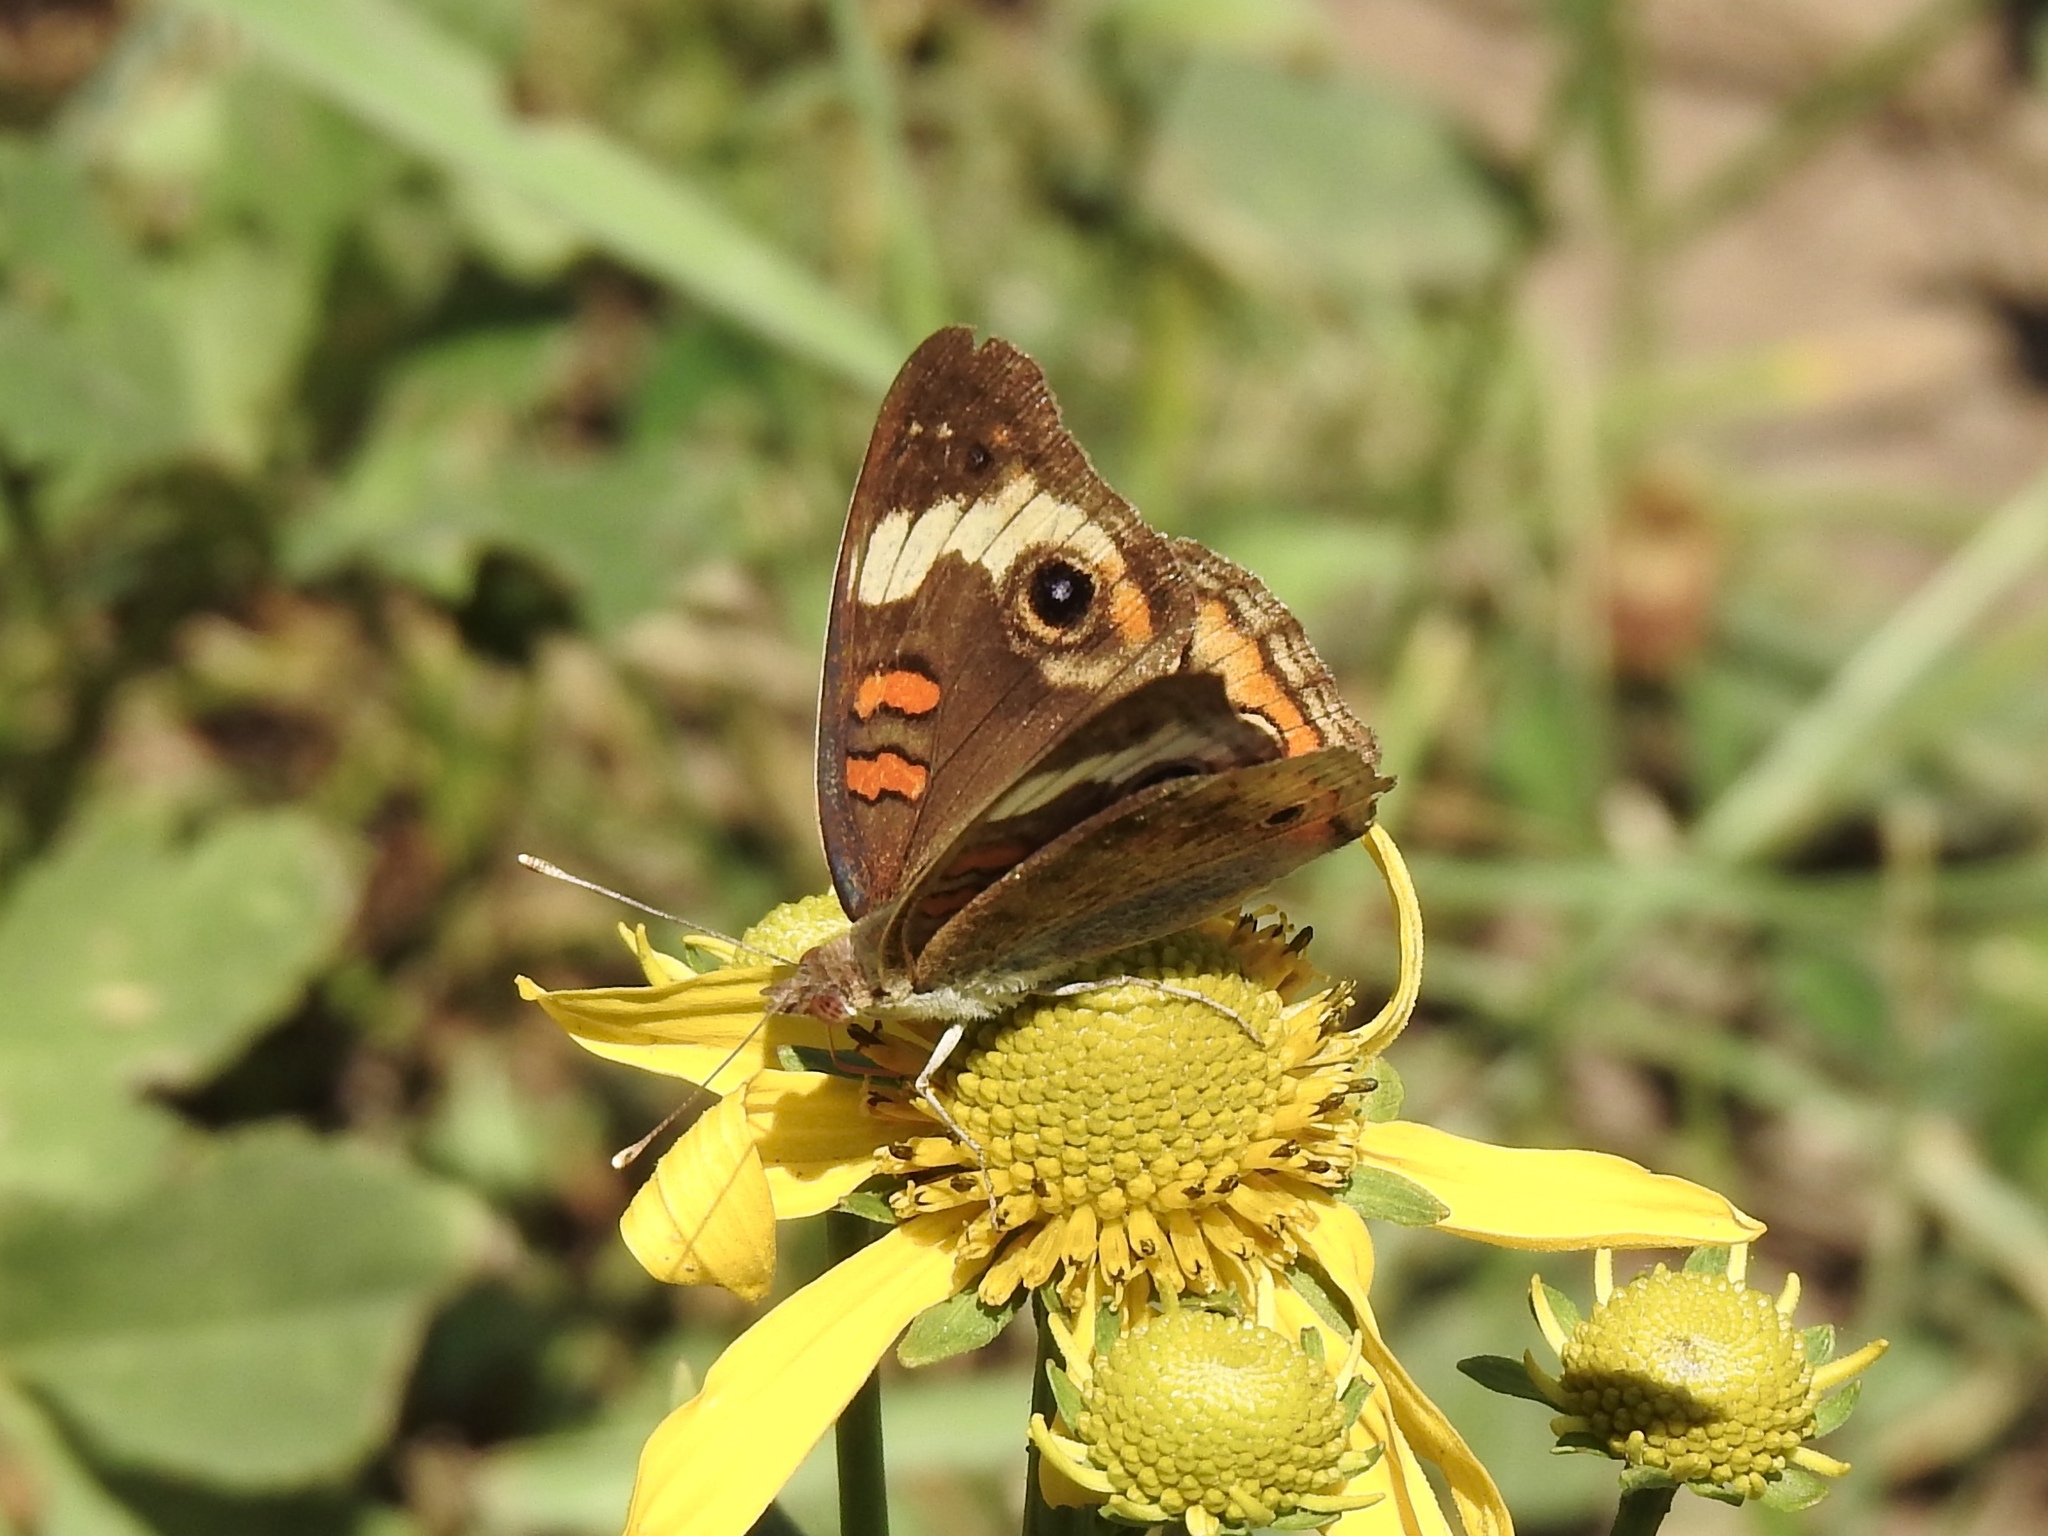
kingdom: Animalia
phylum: Arthropoda
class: Insecta
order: Lepidoptera
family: Nymphalidae
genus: Junonia
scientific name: Junonia grisea
